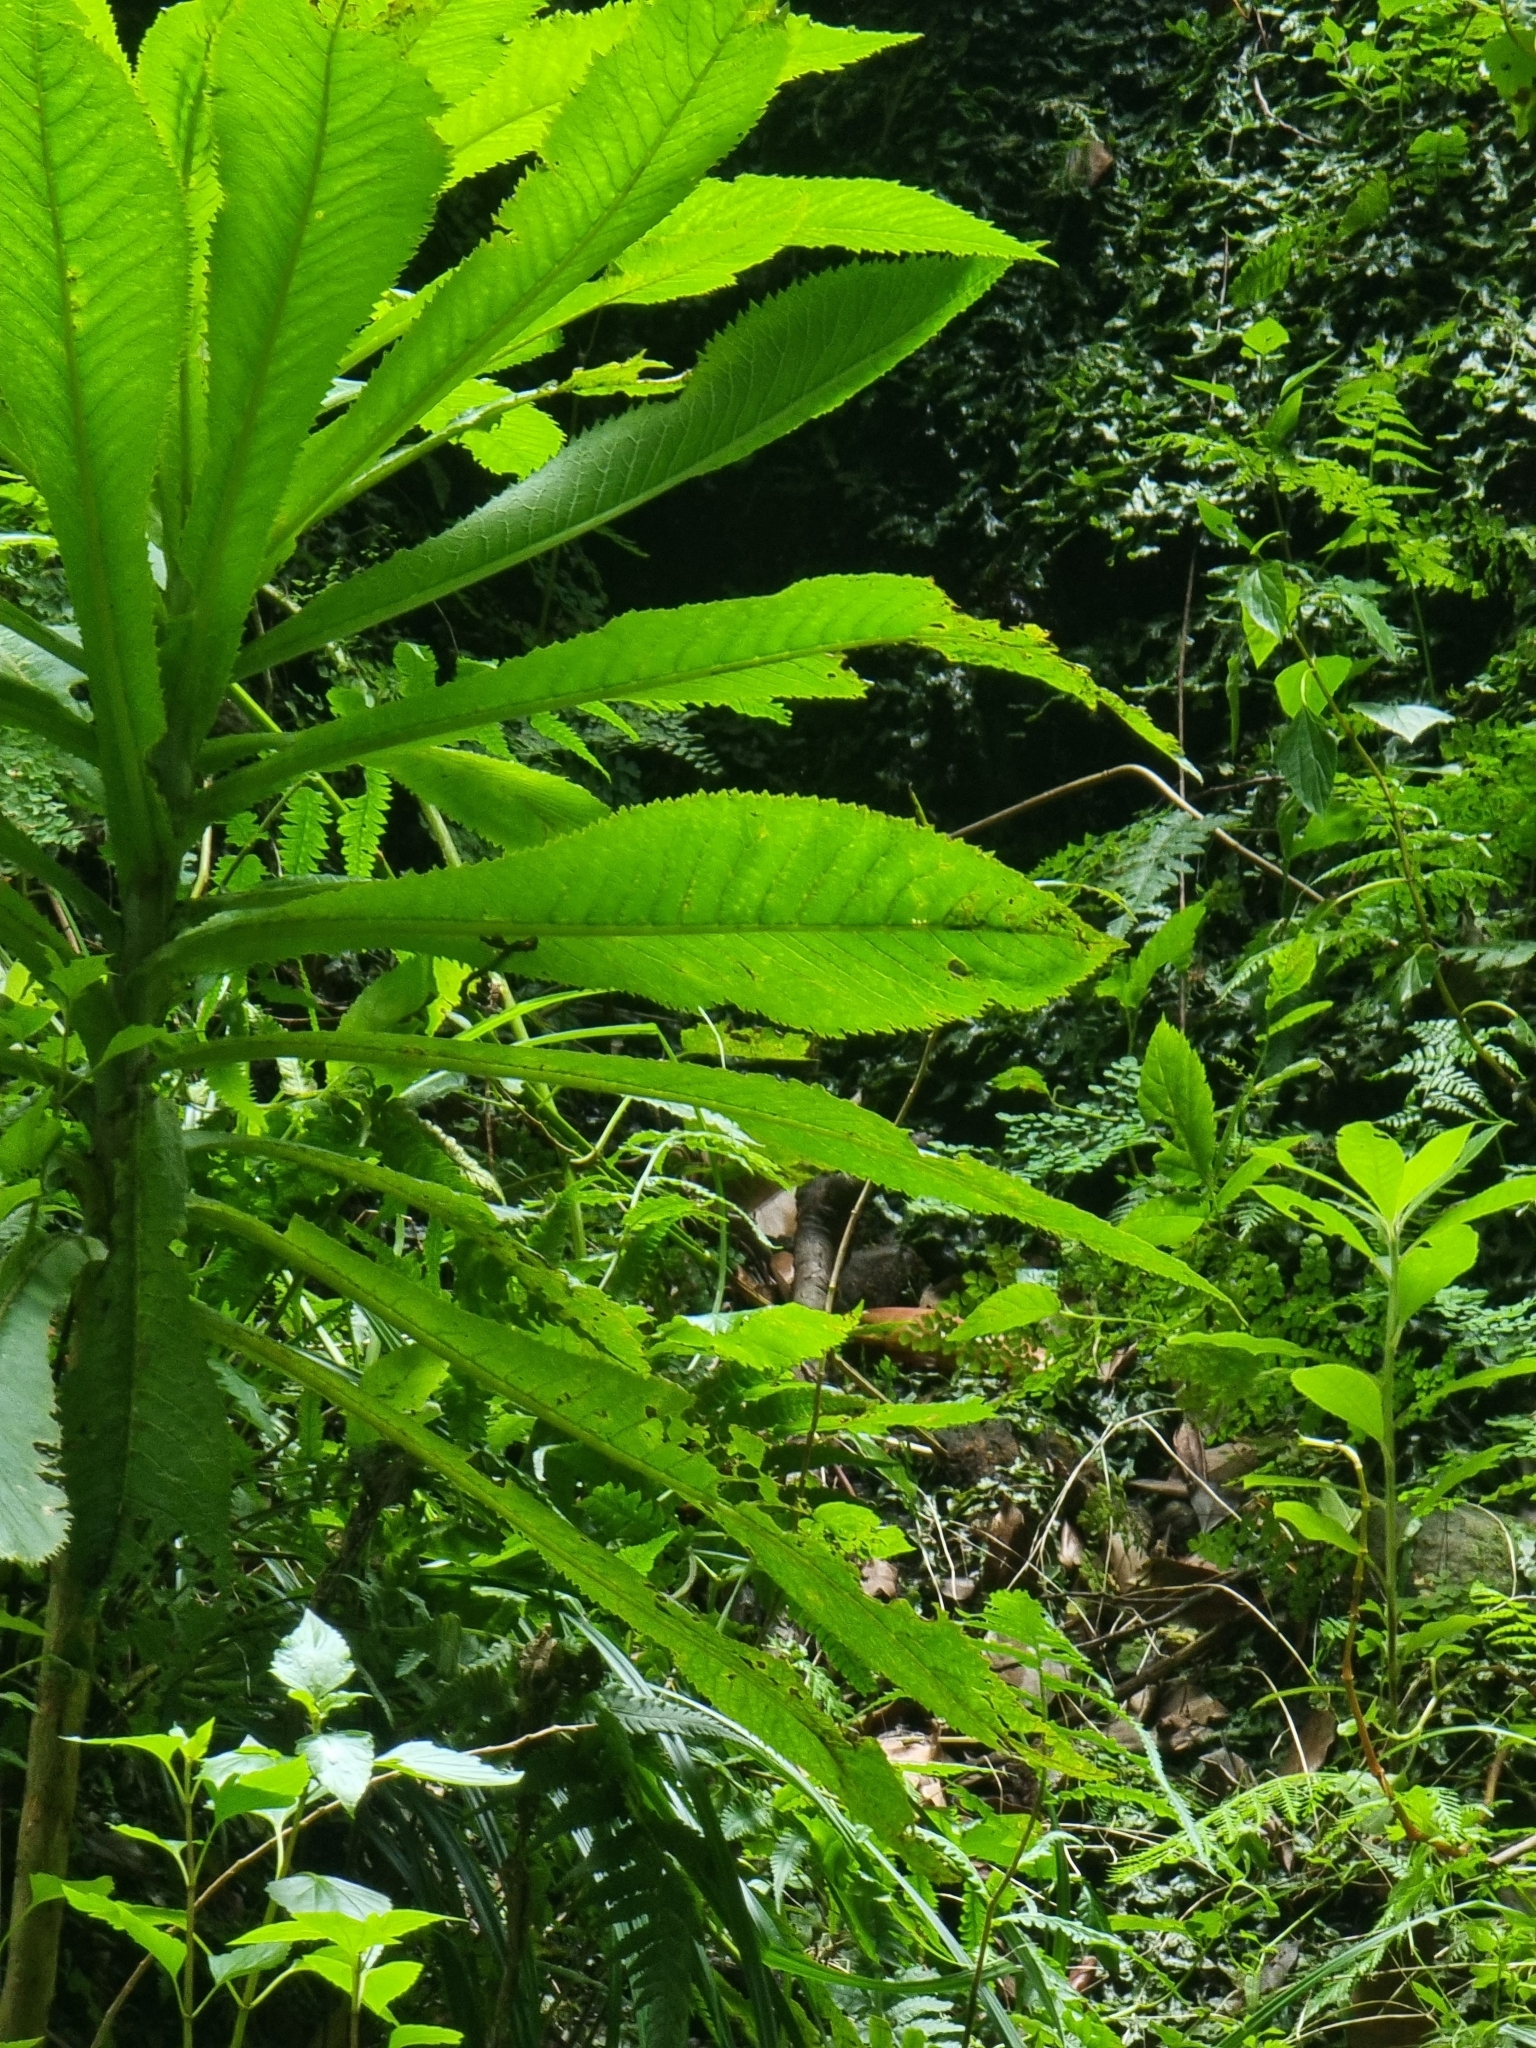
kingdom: Plantae
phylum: Tracheophyta
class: Magnoliopsida
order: Asterales
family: Campanulaceae
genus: Musschia
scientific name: Musschia wollastonii
